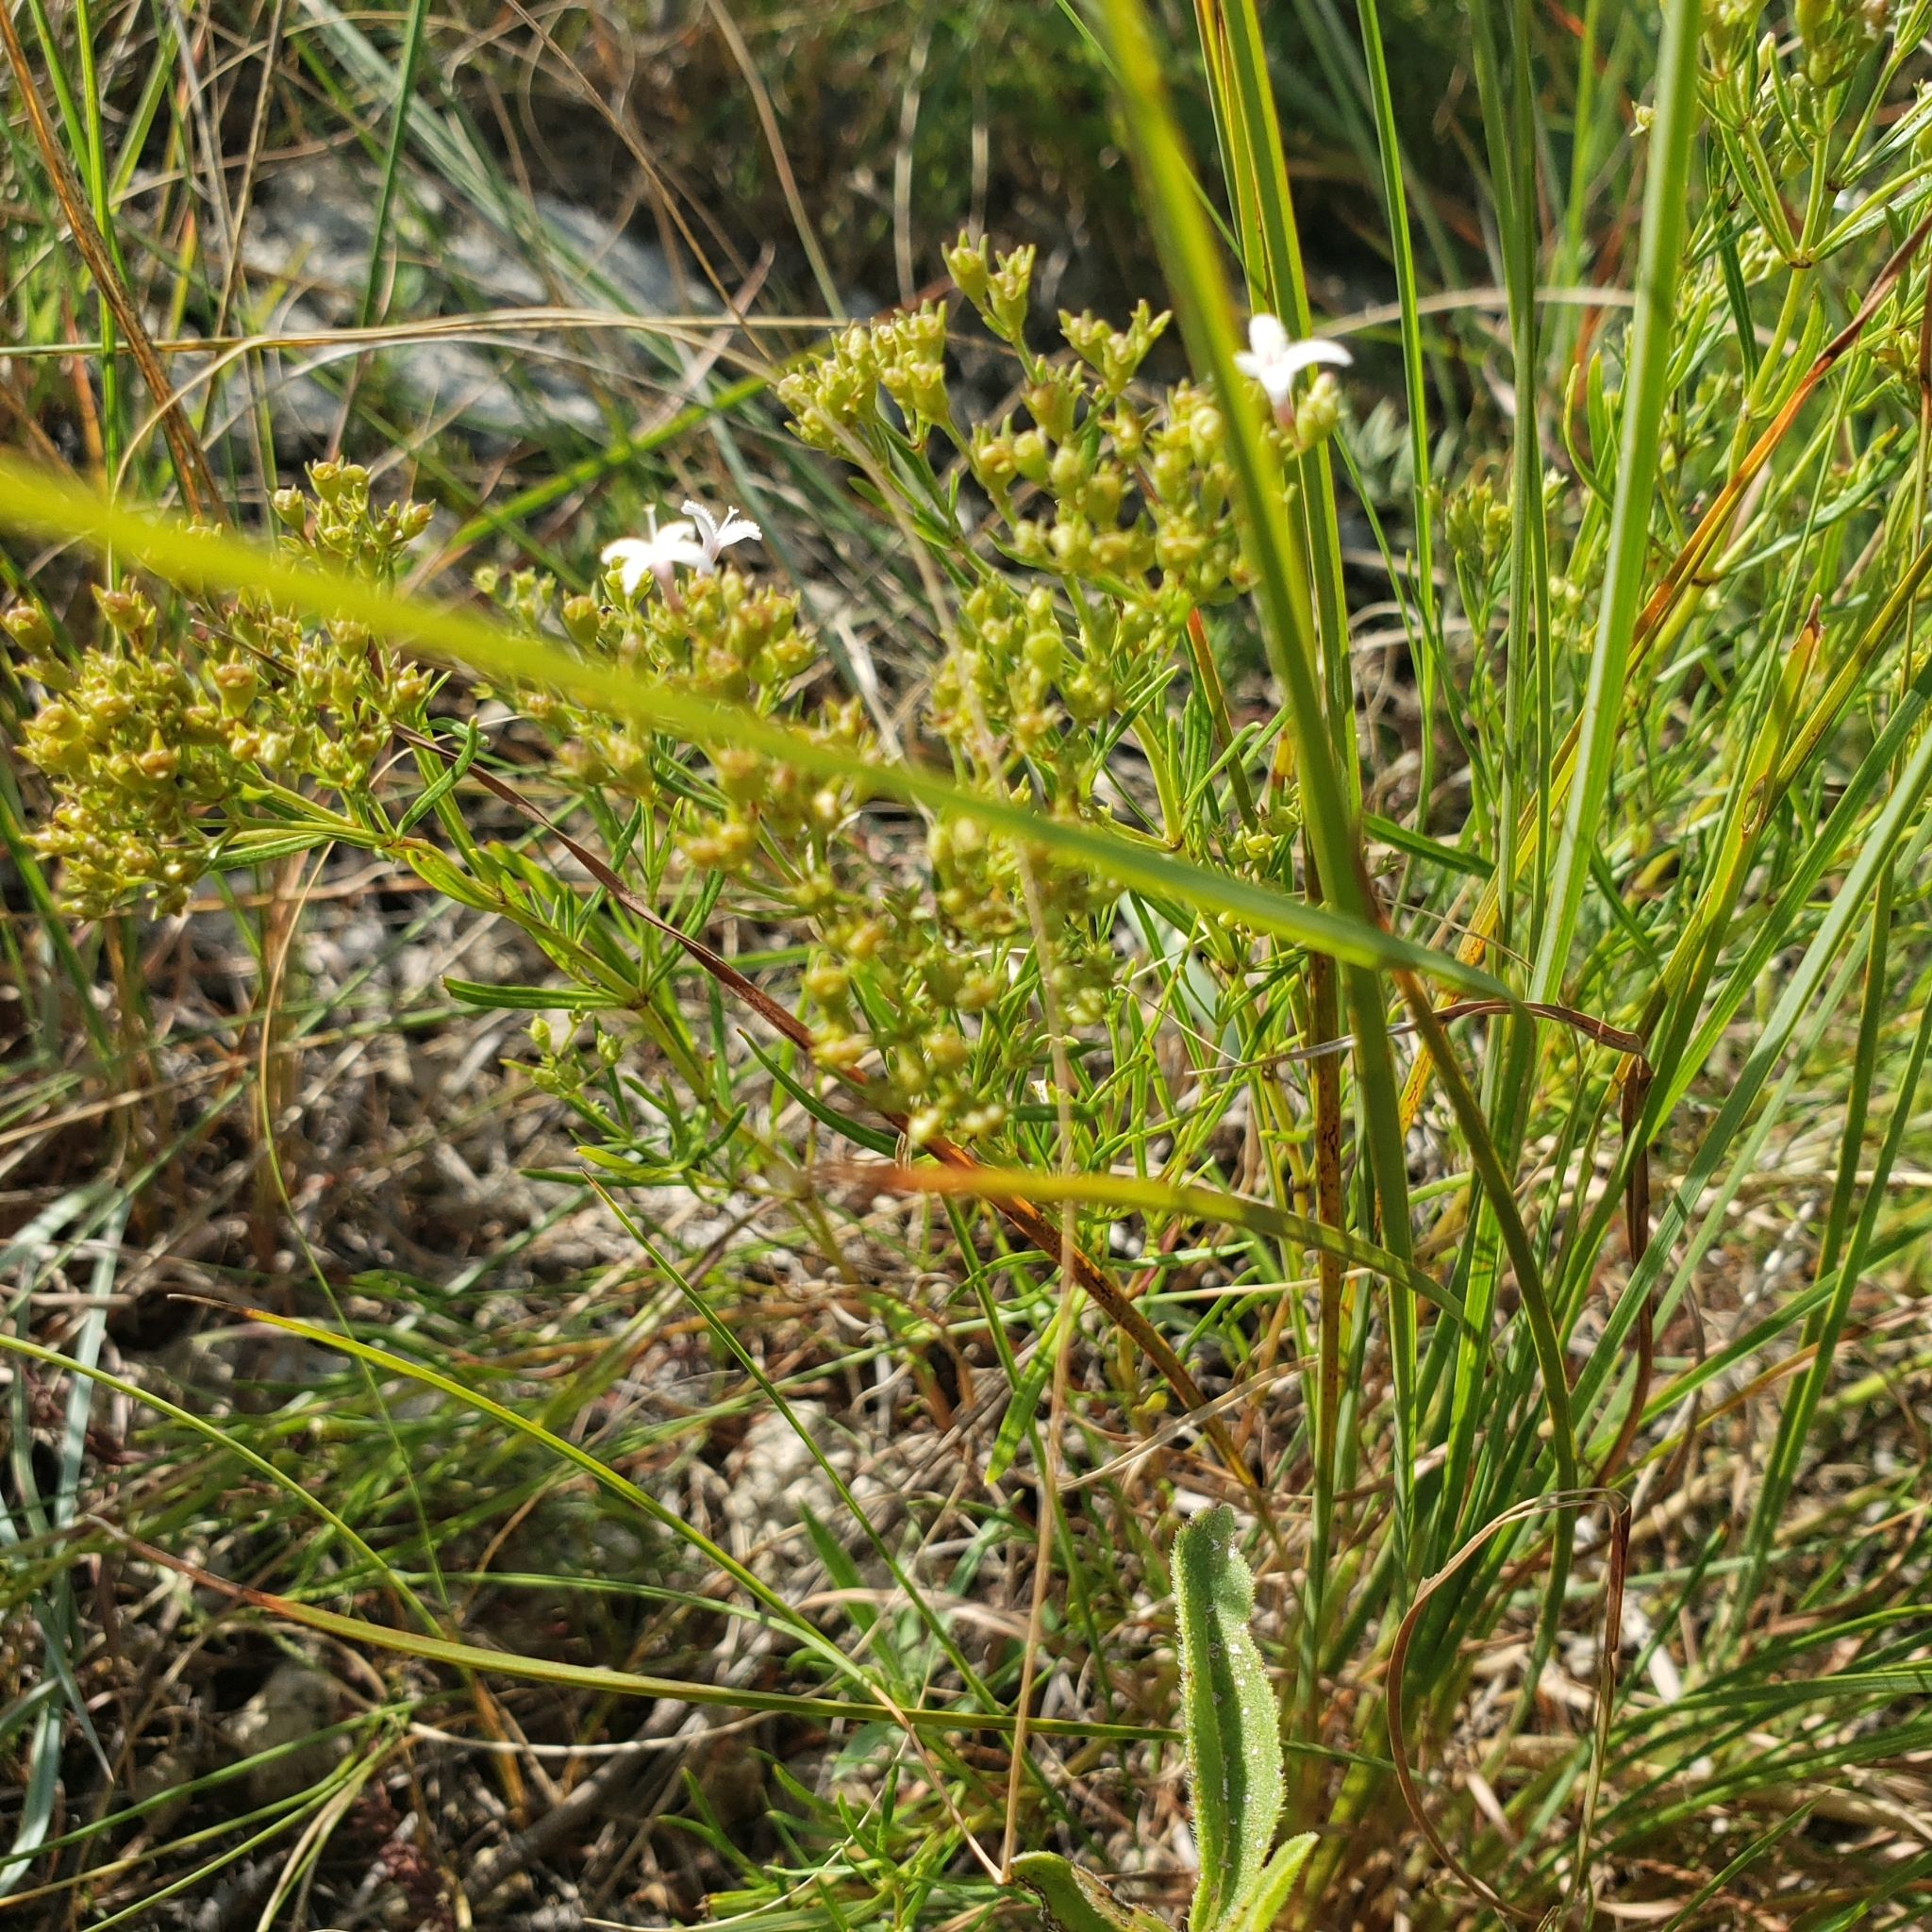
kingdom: Plantae
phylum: Tracheophyta
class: Magnoliopsida
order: Gentianales
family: Rubiaceae
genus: Stenaria
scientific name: Stenaria nigricans
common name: Diamondflowers
